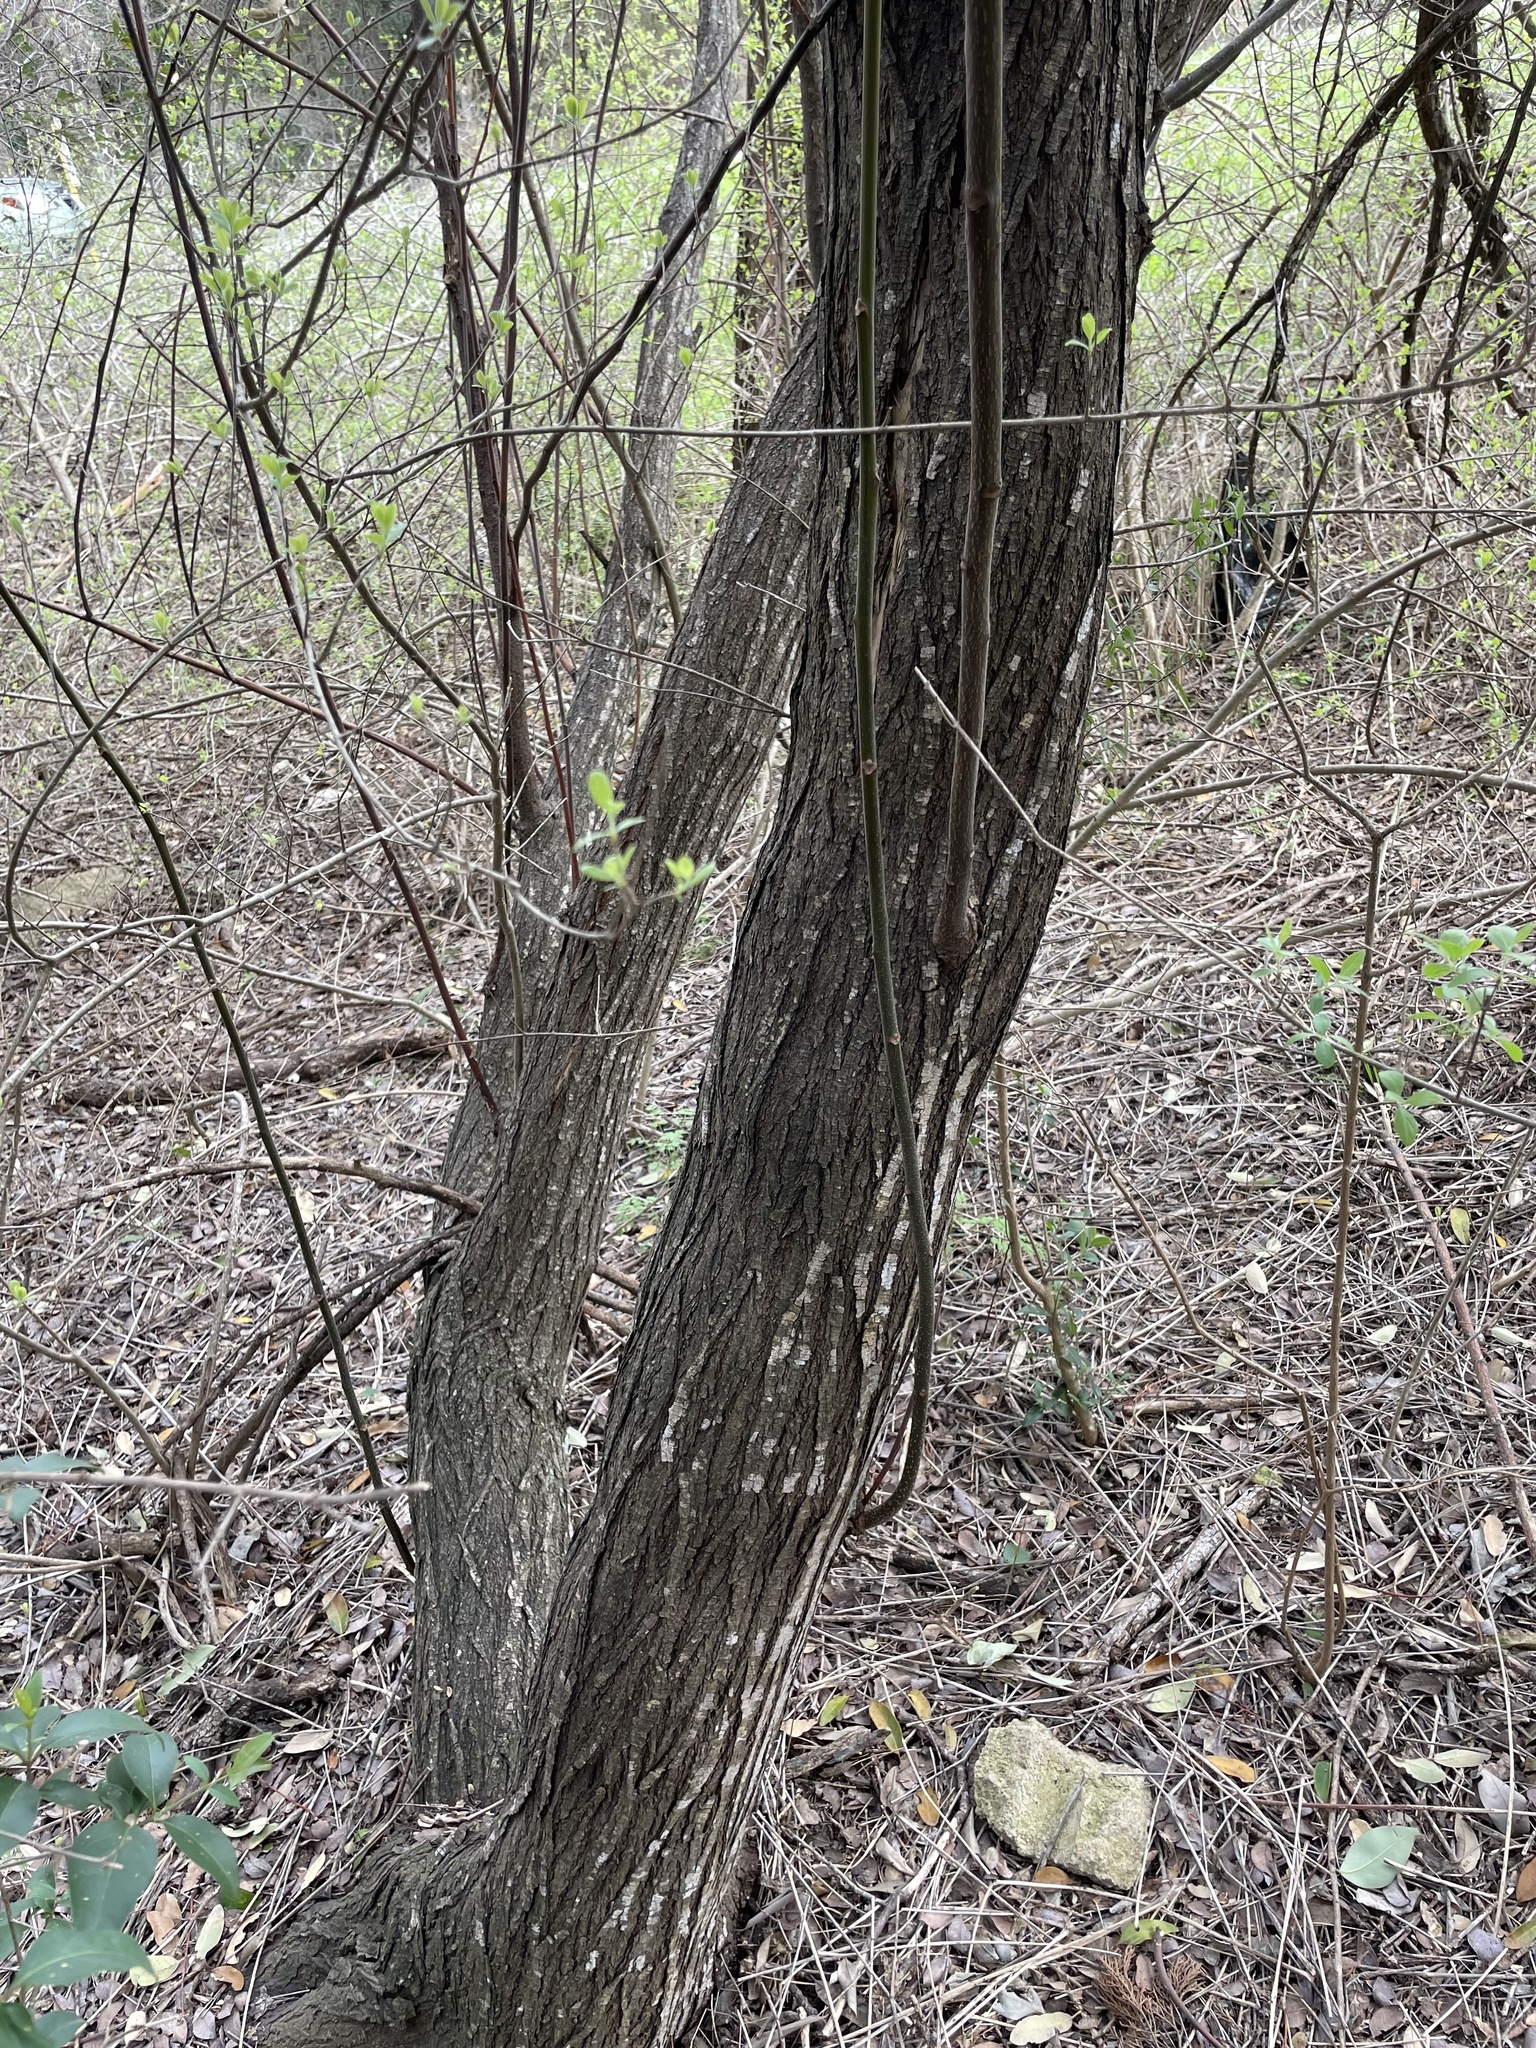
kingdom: Plantae
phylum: Tracheophyta
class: Magnoliopsida
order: Sapindales
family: Meliaceae
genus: Melia
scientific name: Melia azedarach
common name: Chinaberrytree
